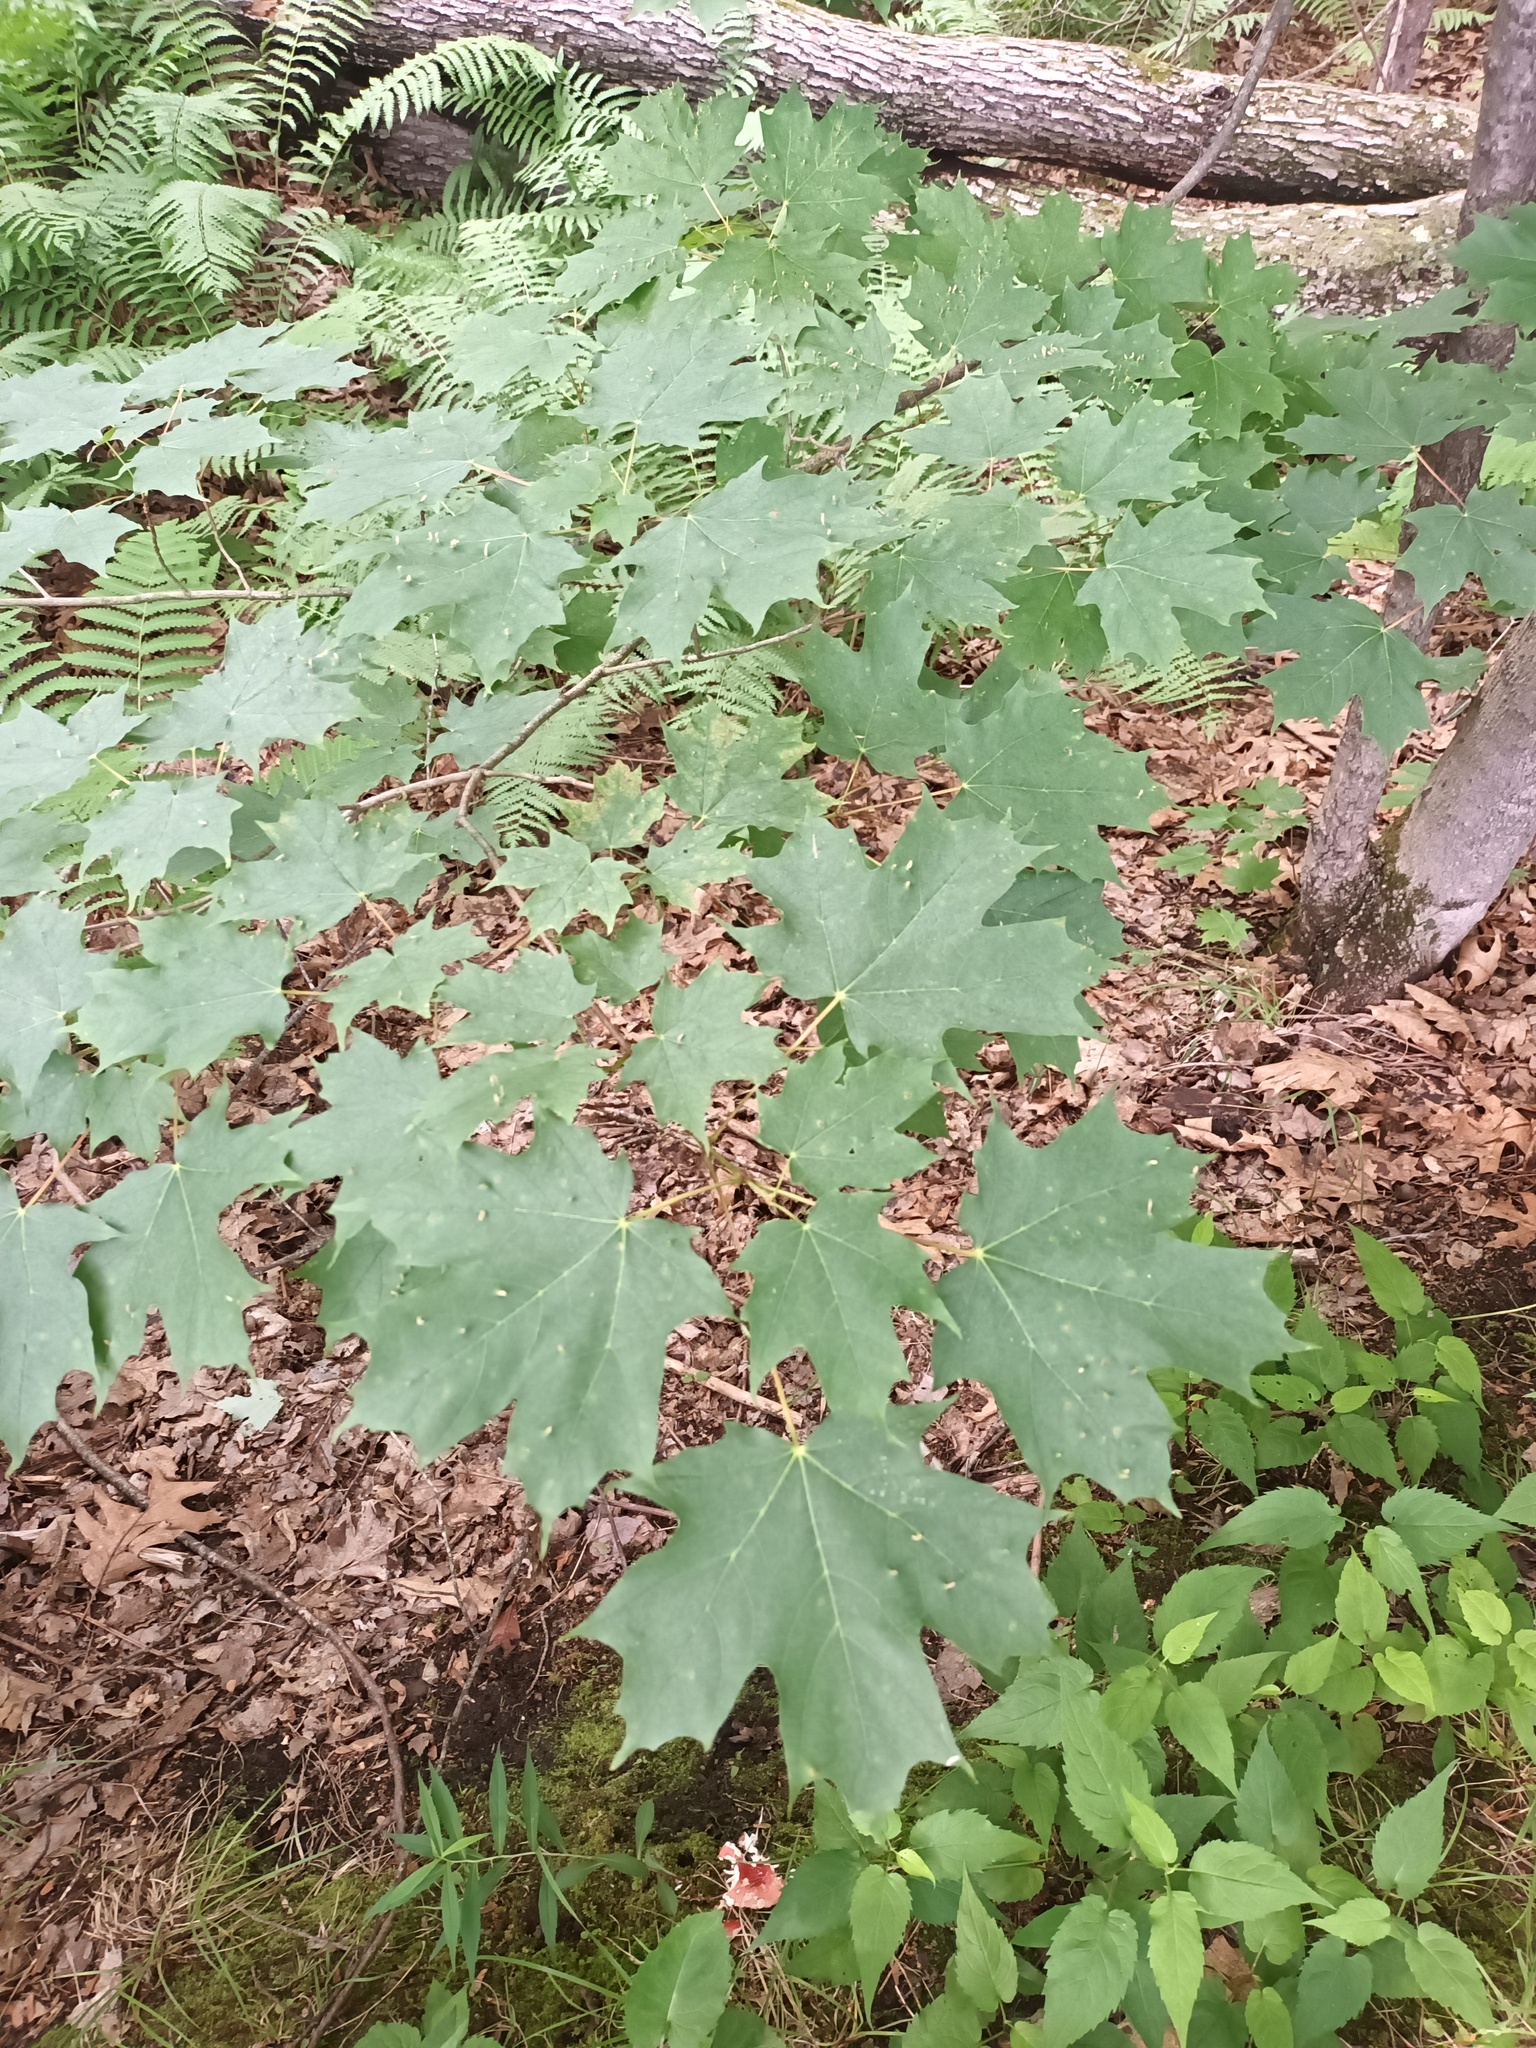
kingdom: Plantae
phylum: Tracheophyta
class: Magnoliopsida
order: Sapindales
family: Sapindaceae
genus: Acer
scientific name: Acer saccharum
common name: Sugar maple
